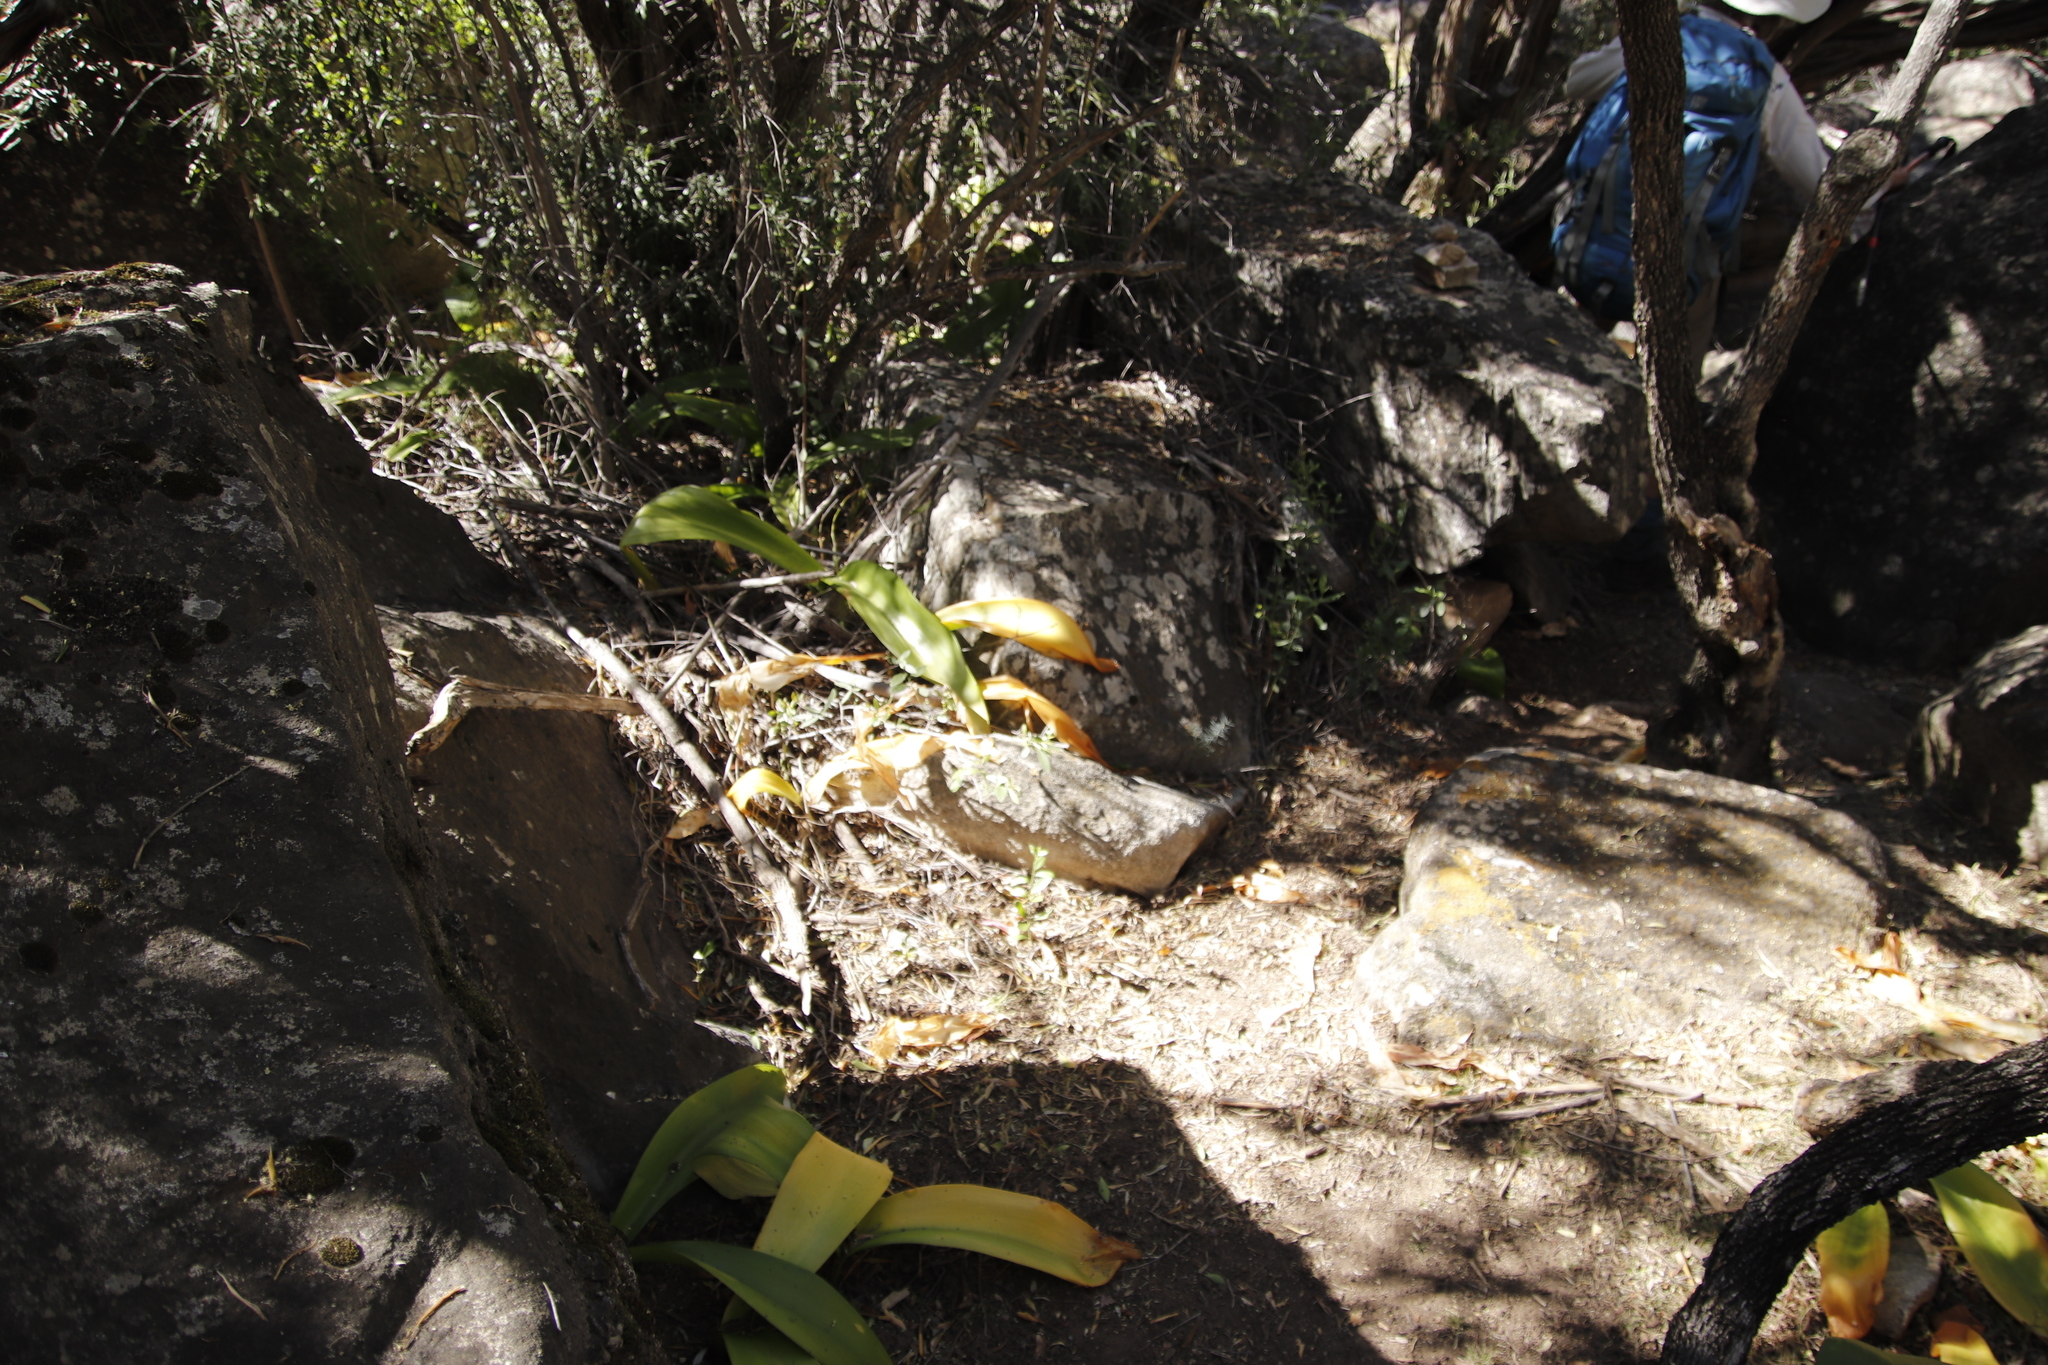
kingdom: Plantae
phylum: Tracheophyta
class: Liliopsida
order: Asparagales
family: Amaryllidaceae
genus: Haemanthus
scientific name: Haemanthus coccineus
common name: Cape-tulip
